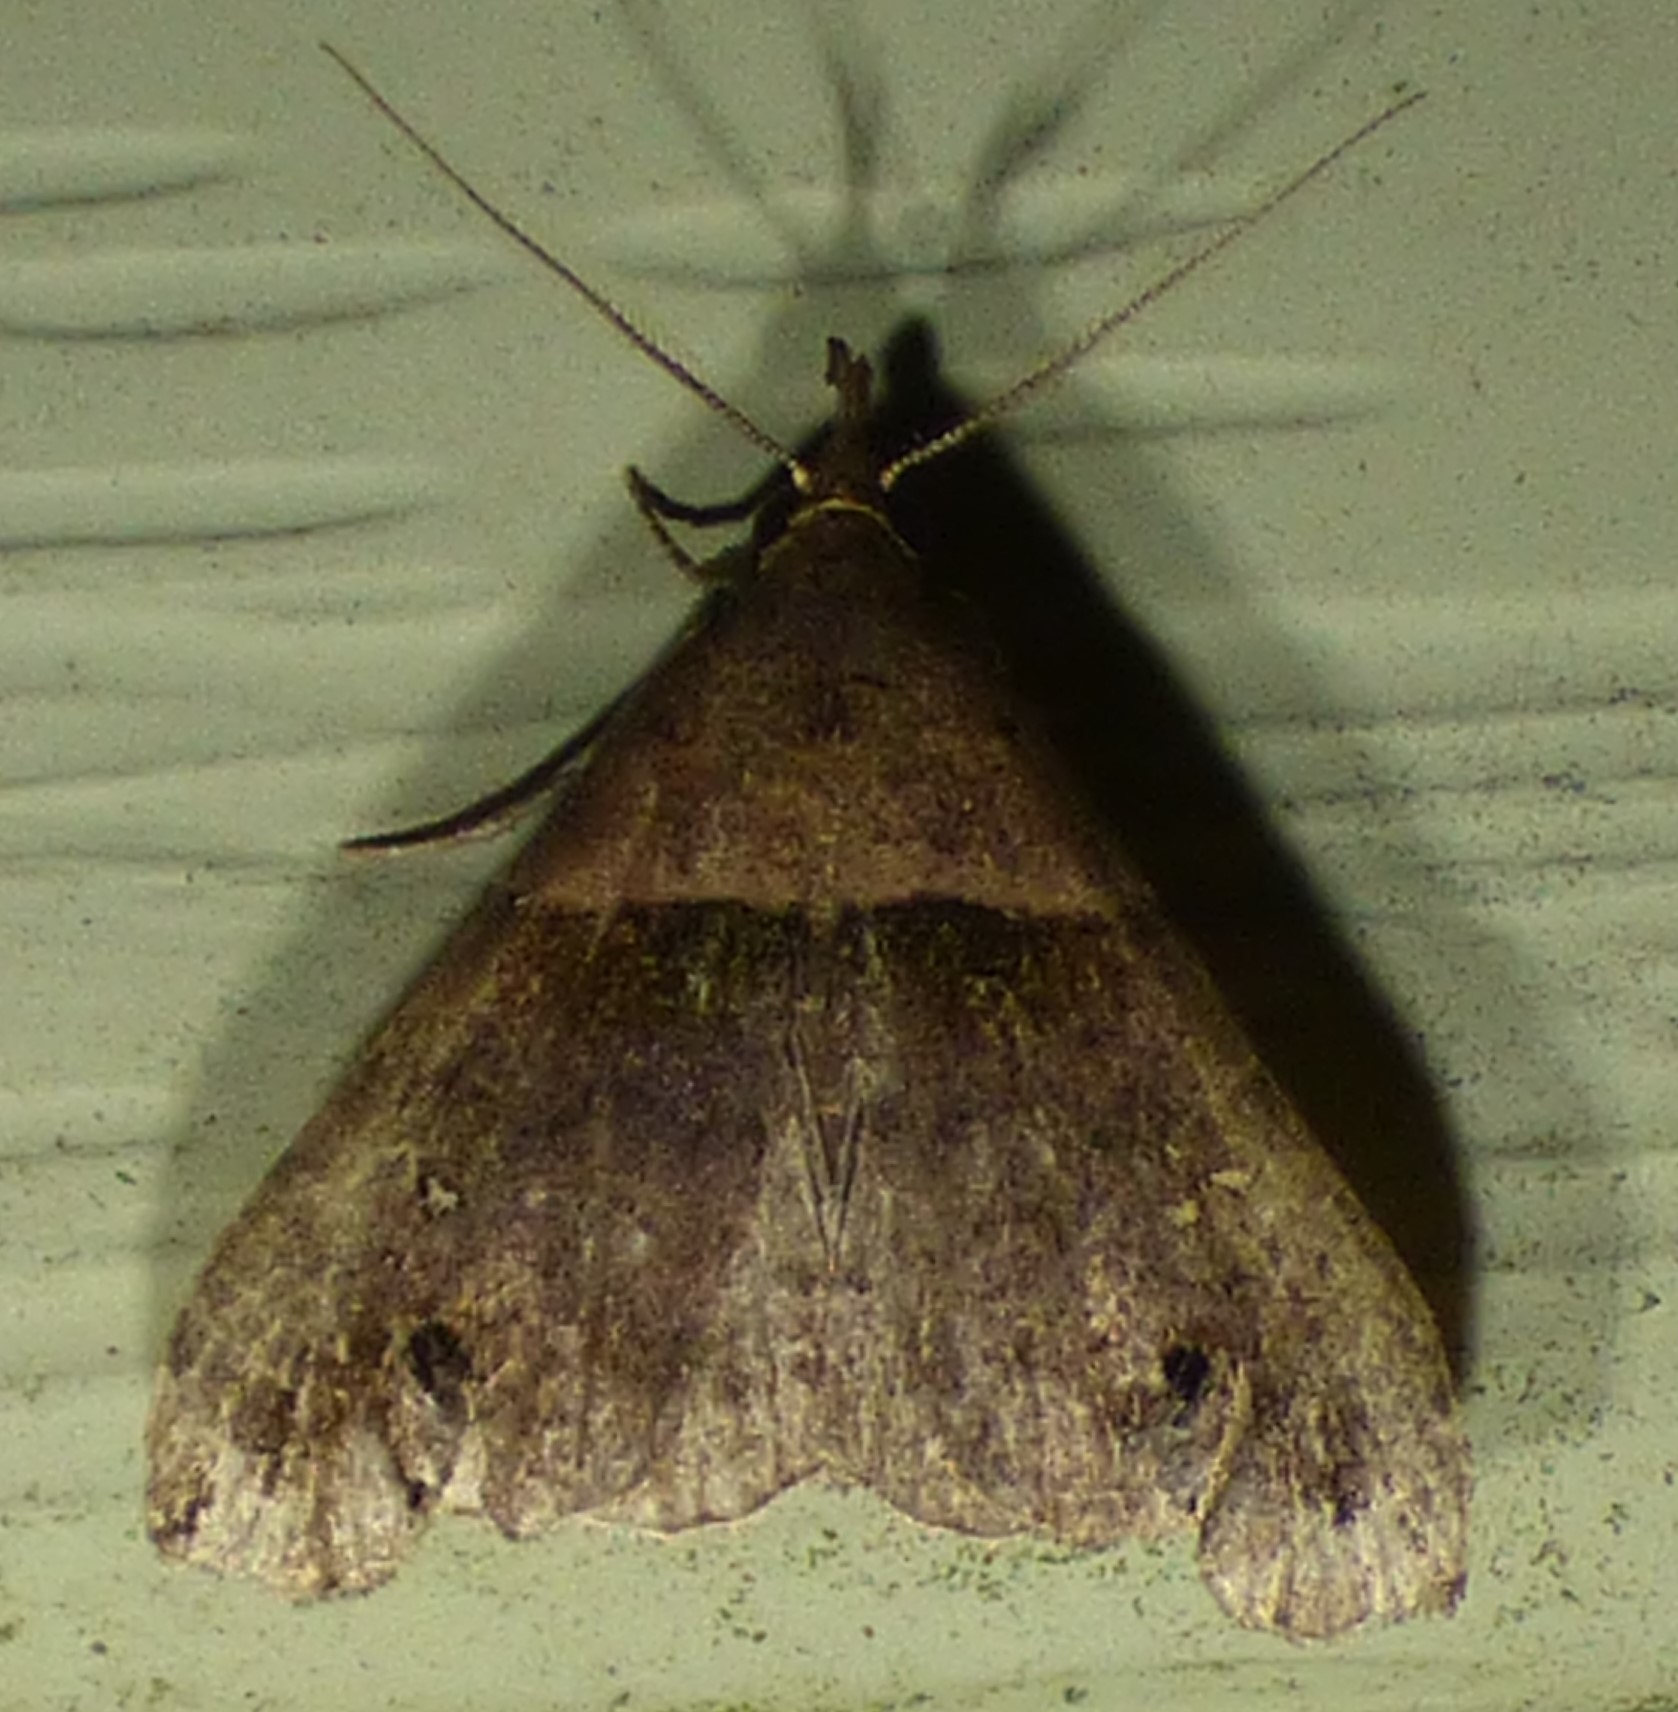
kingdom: Animalia
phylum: Arthropoda
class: Insecta
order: Lepidoptera
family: Erebidae
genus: Lascoria
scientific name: Lascoria ambigualis
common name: Ambiguous moth
